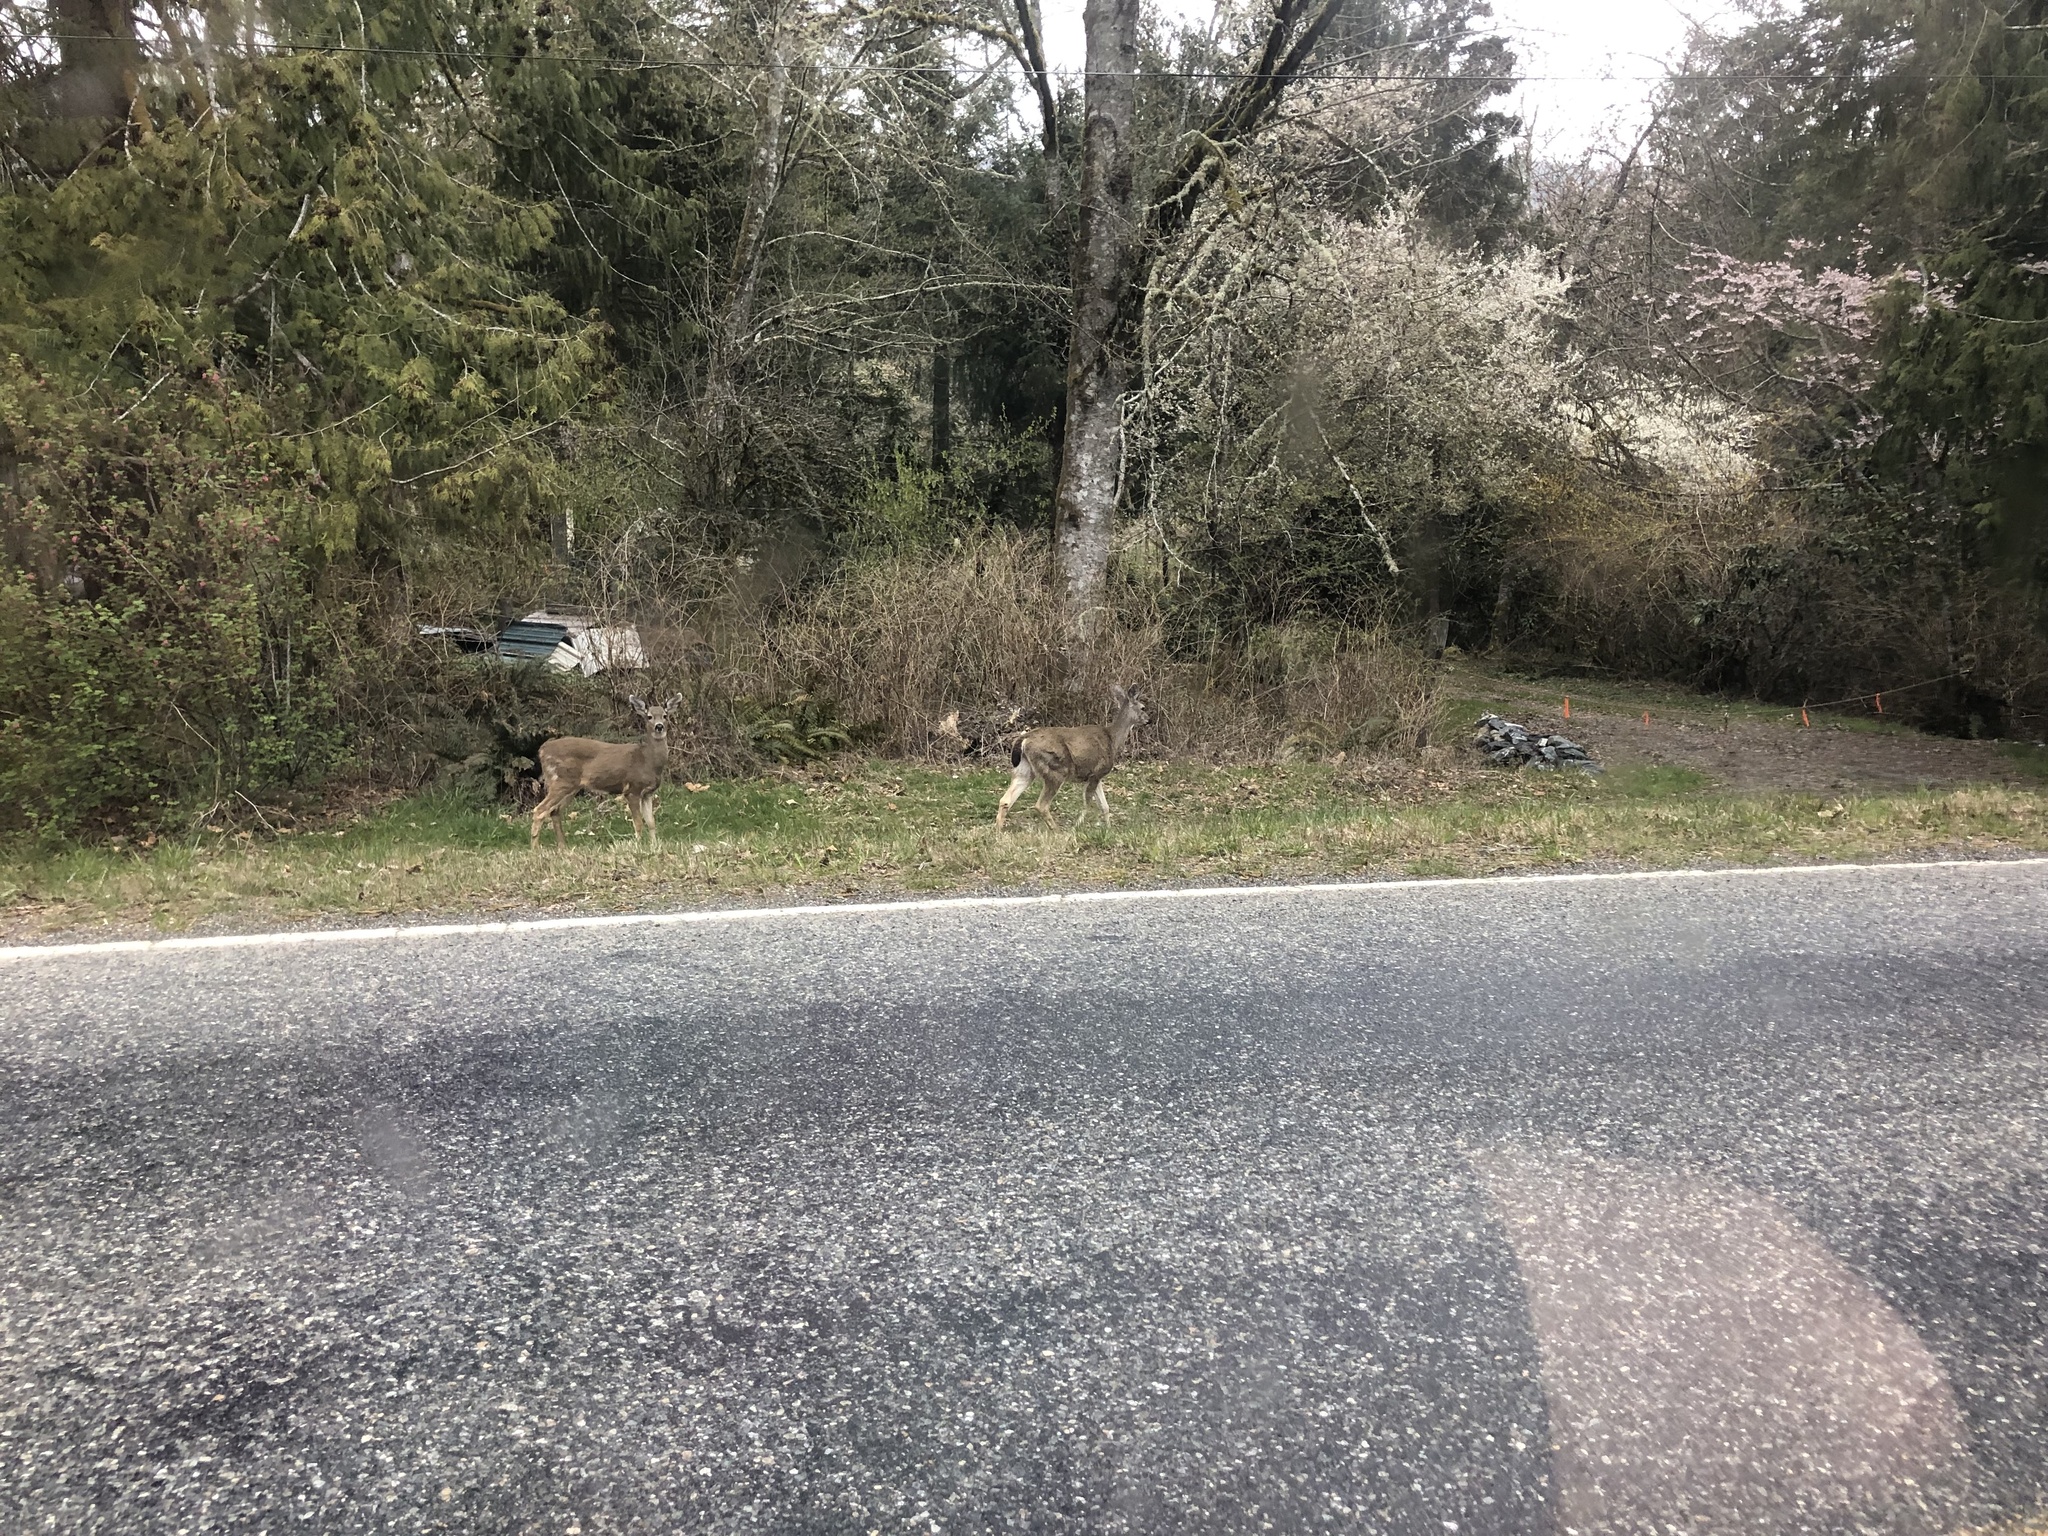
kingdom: Animalia
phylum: Chordata
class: Mammalia
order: Artiodactyla
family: Cervidae
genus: Odocoileus
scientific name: Odocoileus hemionus
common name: Mule deer
